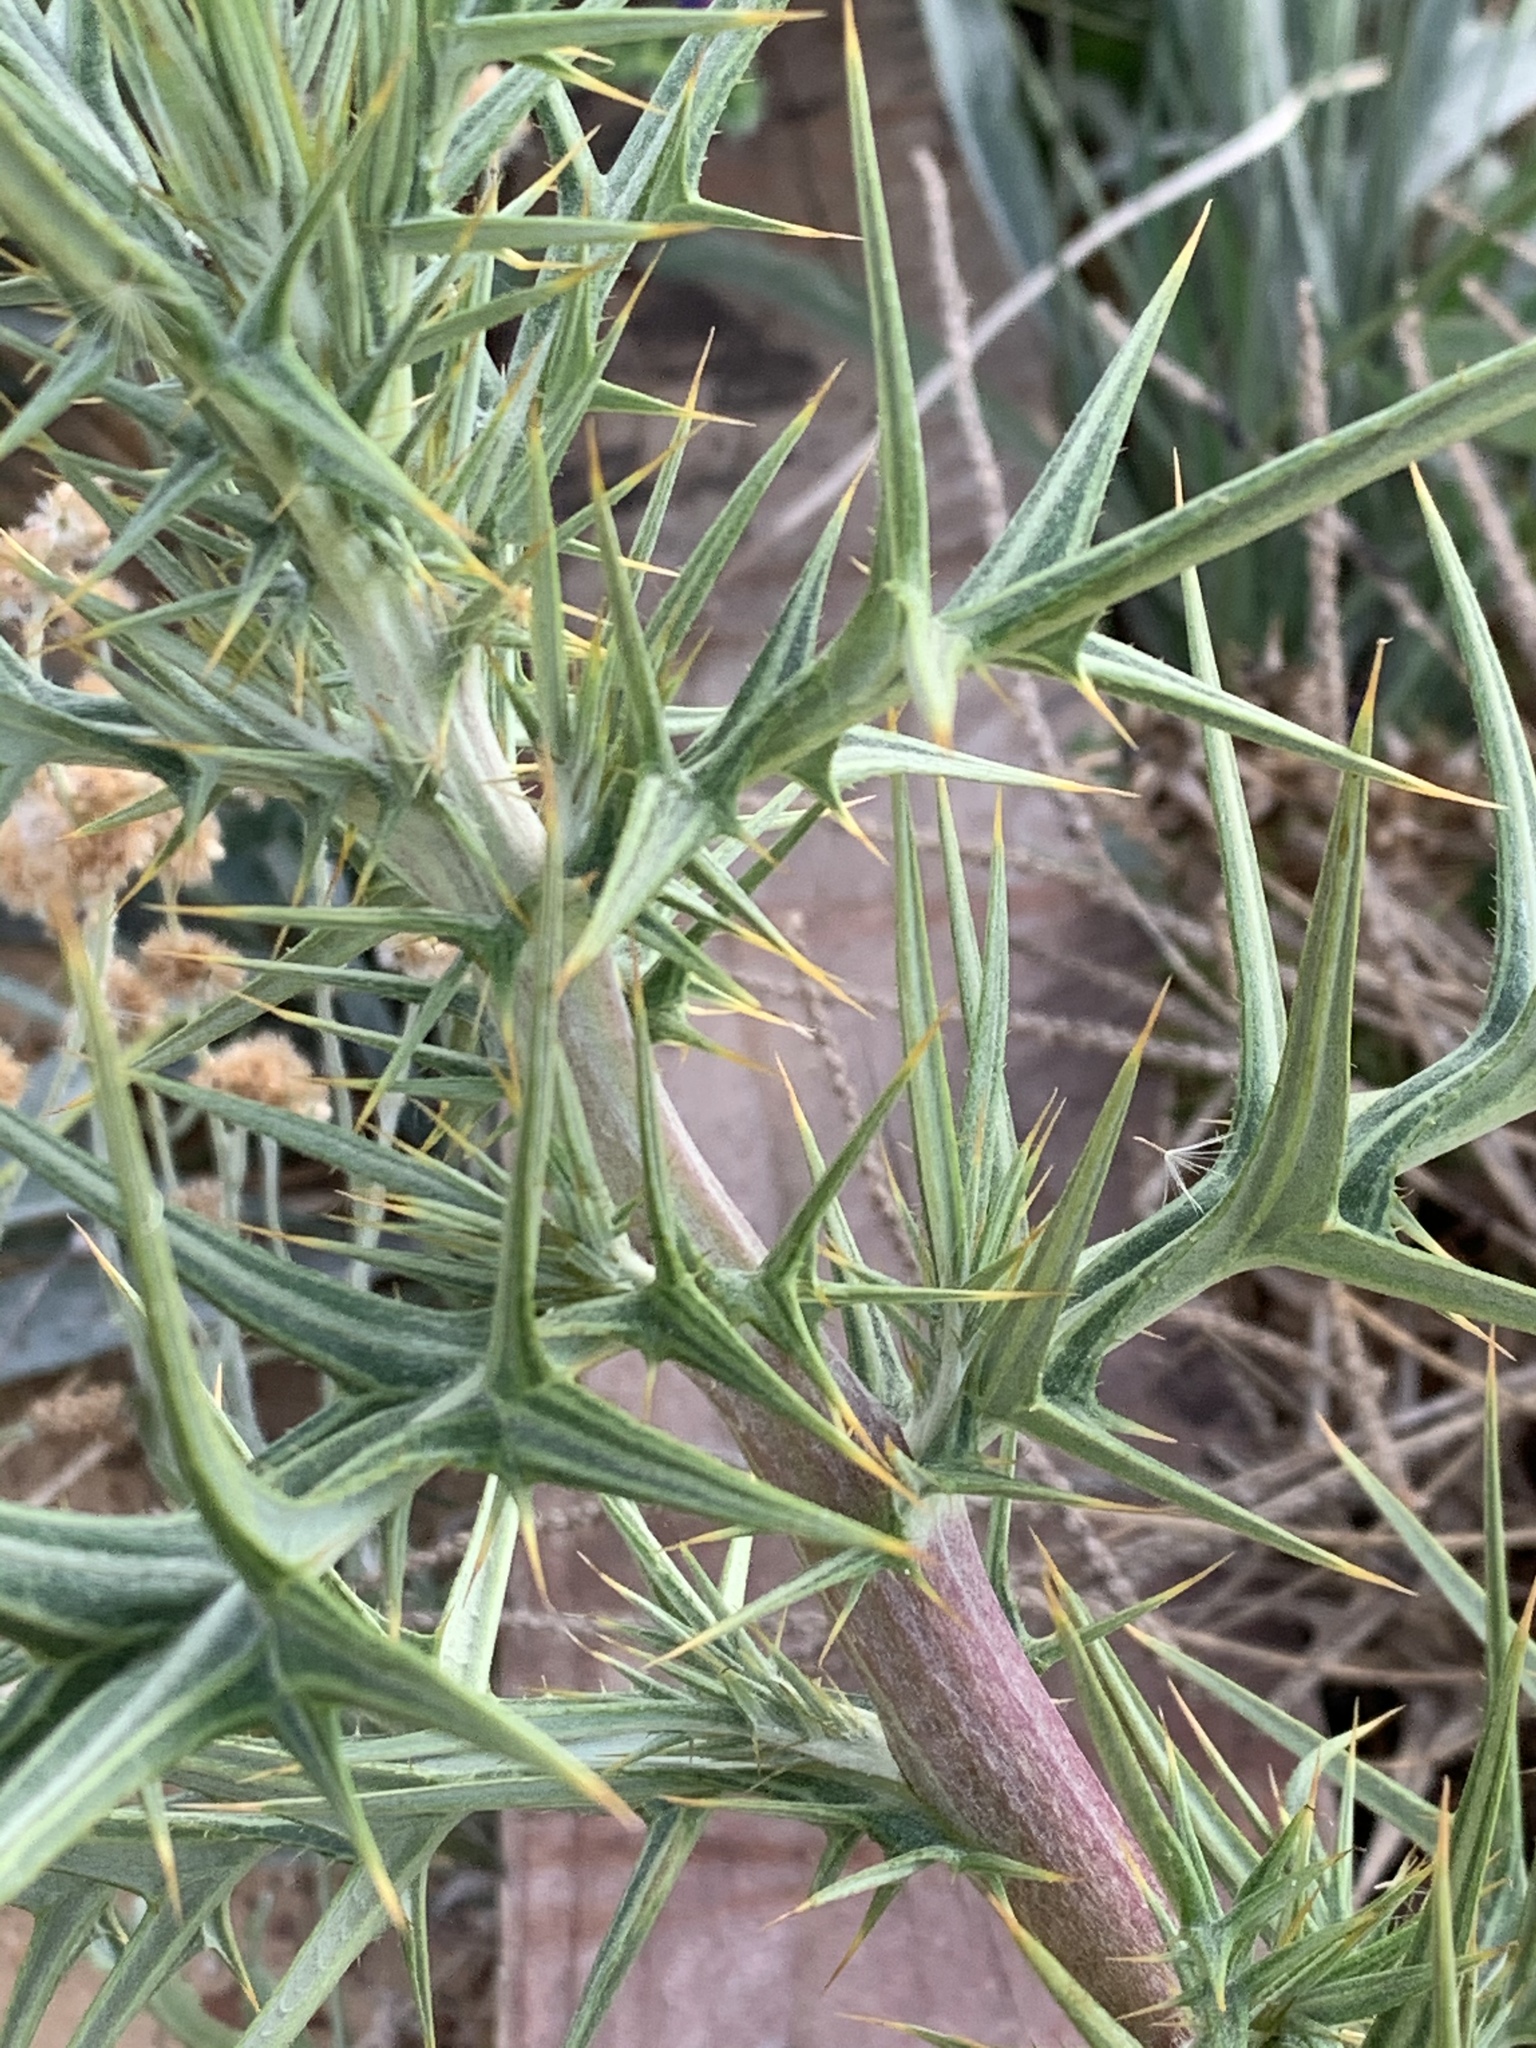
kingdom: Plantae
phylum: Tracheophyta
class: Magnoliopsida
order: Asterales
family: Asteraceae
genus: Berkheya
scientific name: Berkheya rigida
